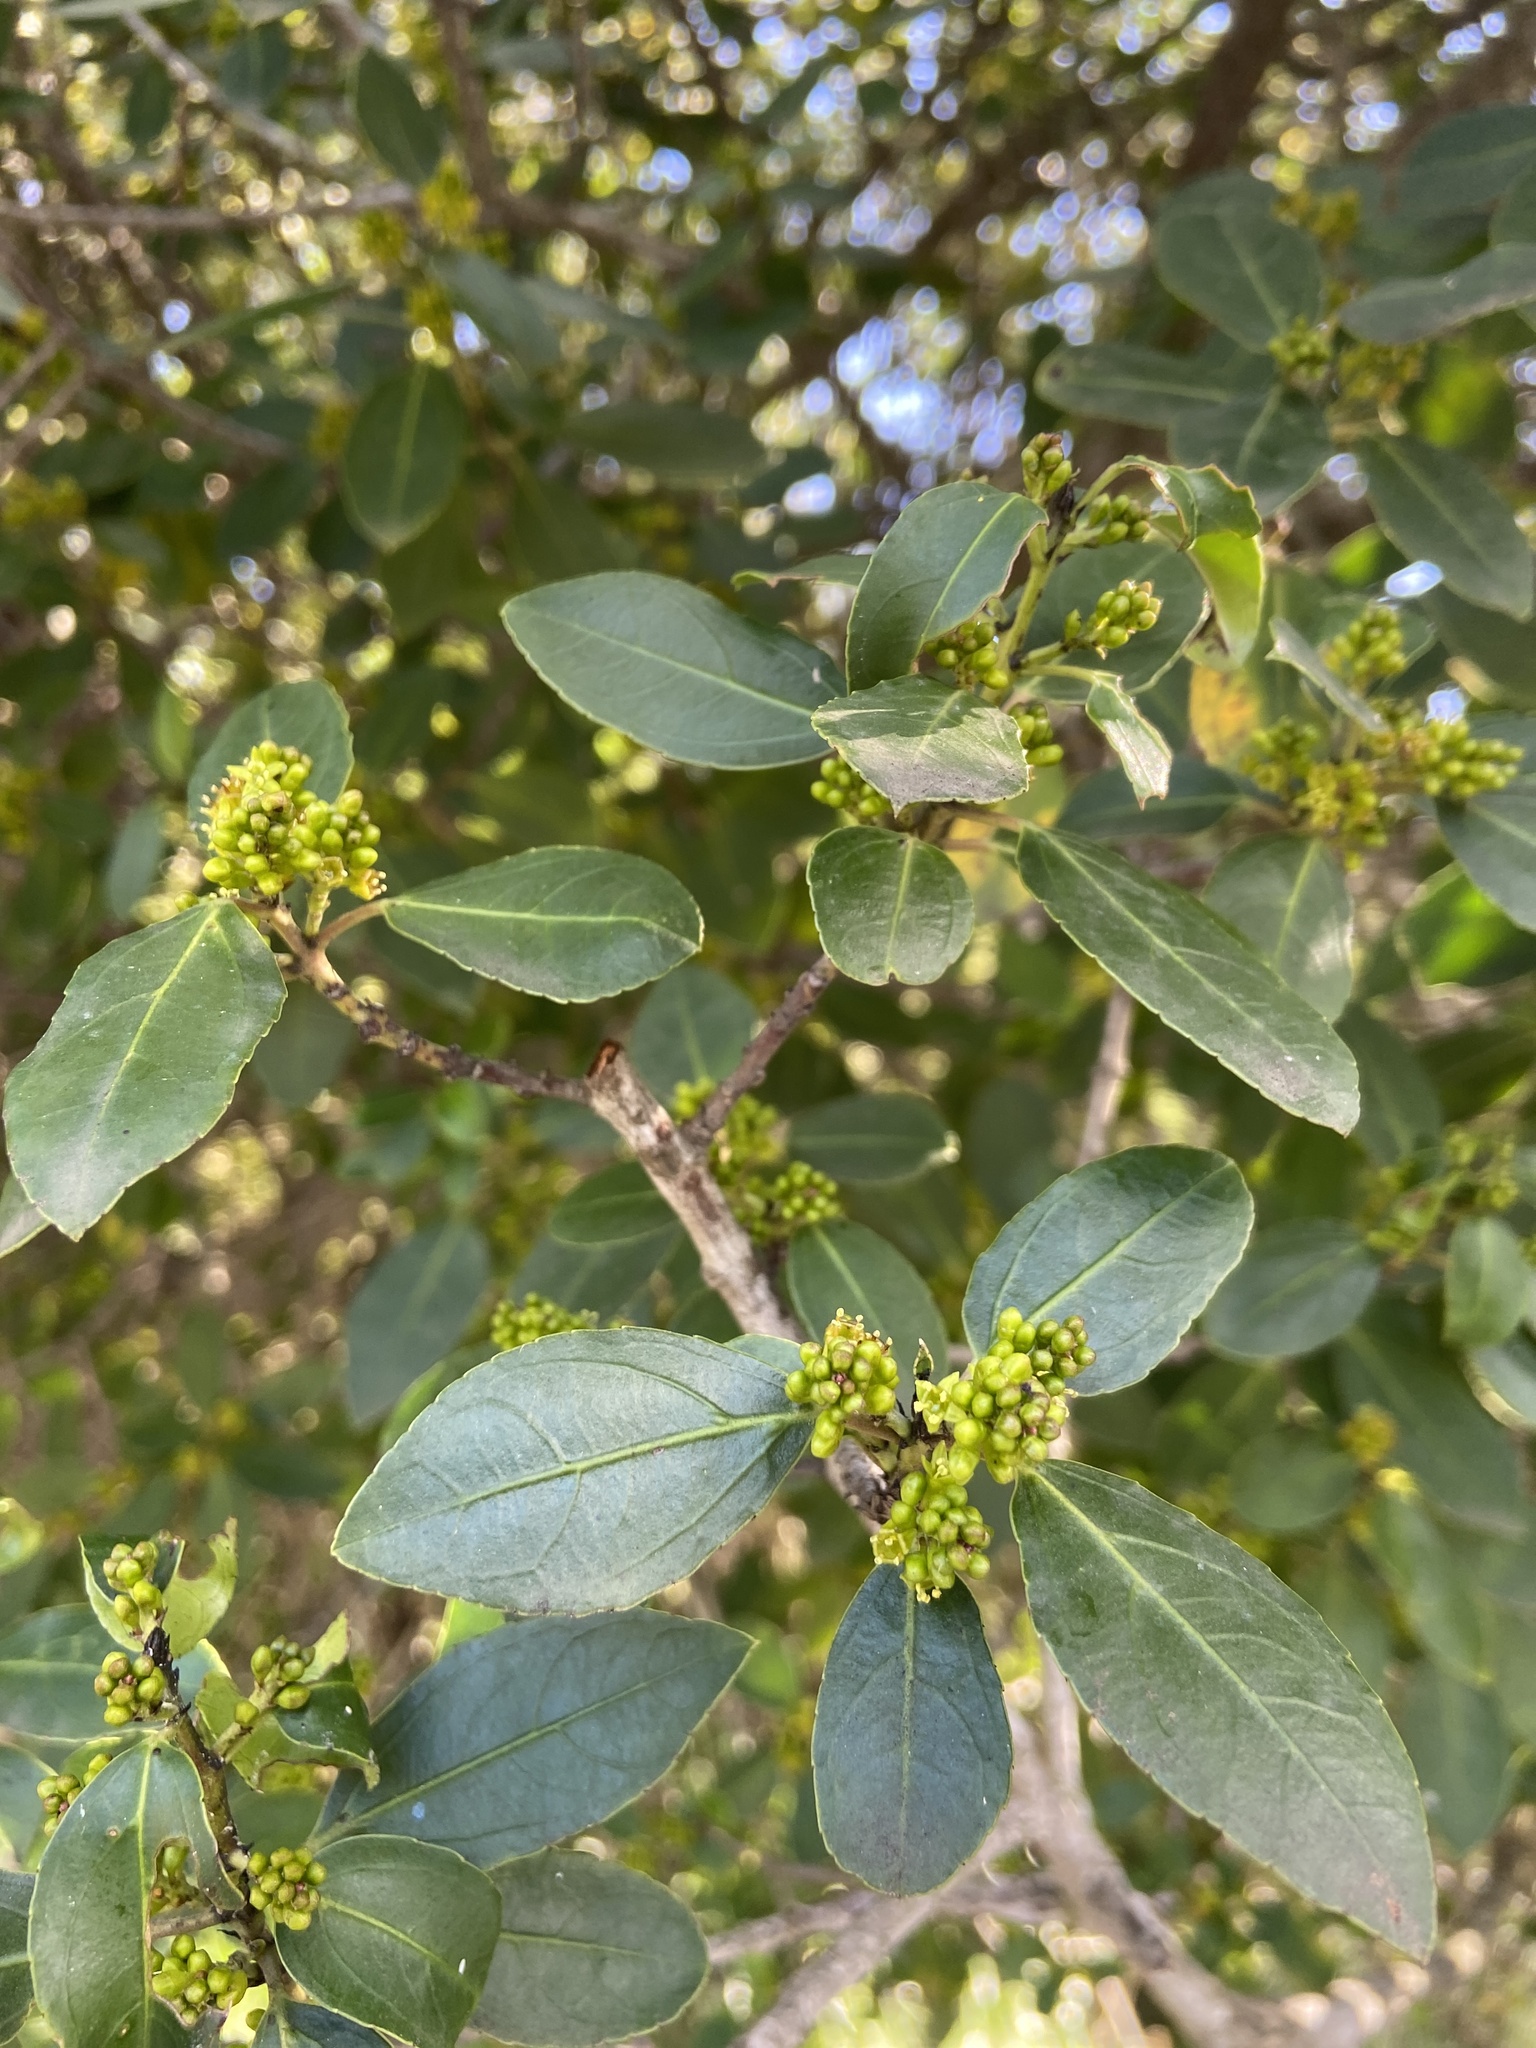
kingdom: Plantae
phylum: Tracheophyta
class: Magnoliopsida
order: Rosales
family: Rhamnaceae
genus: Rhamnus
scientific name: Rhamnus alaternus
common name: Mediterranean buckthorn
